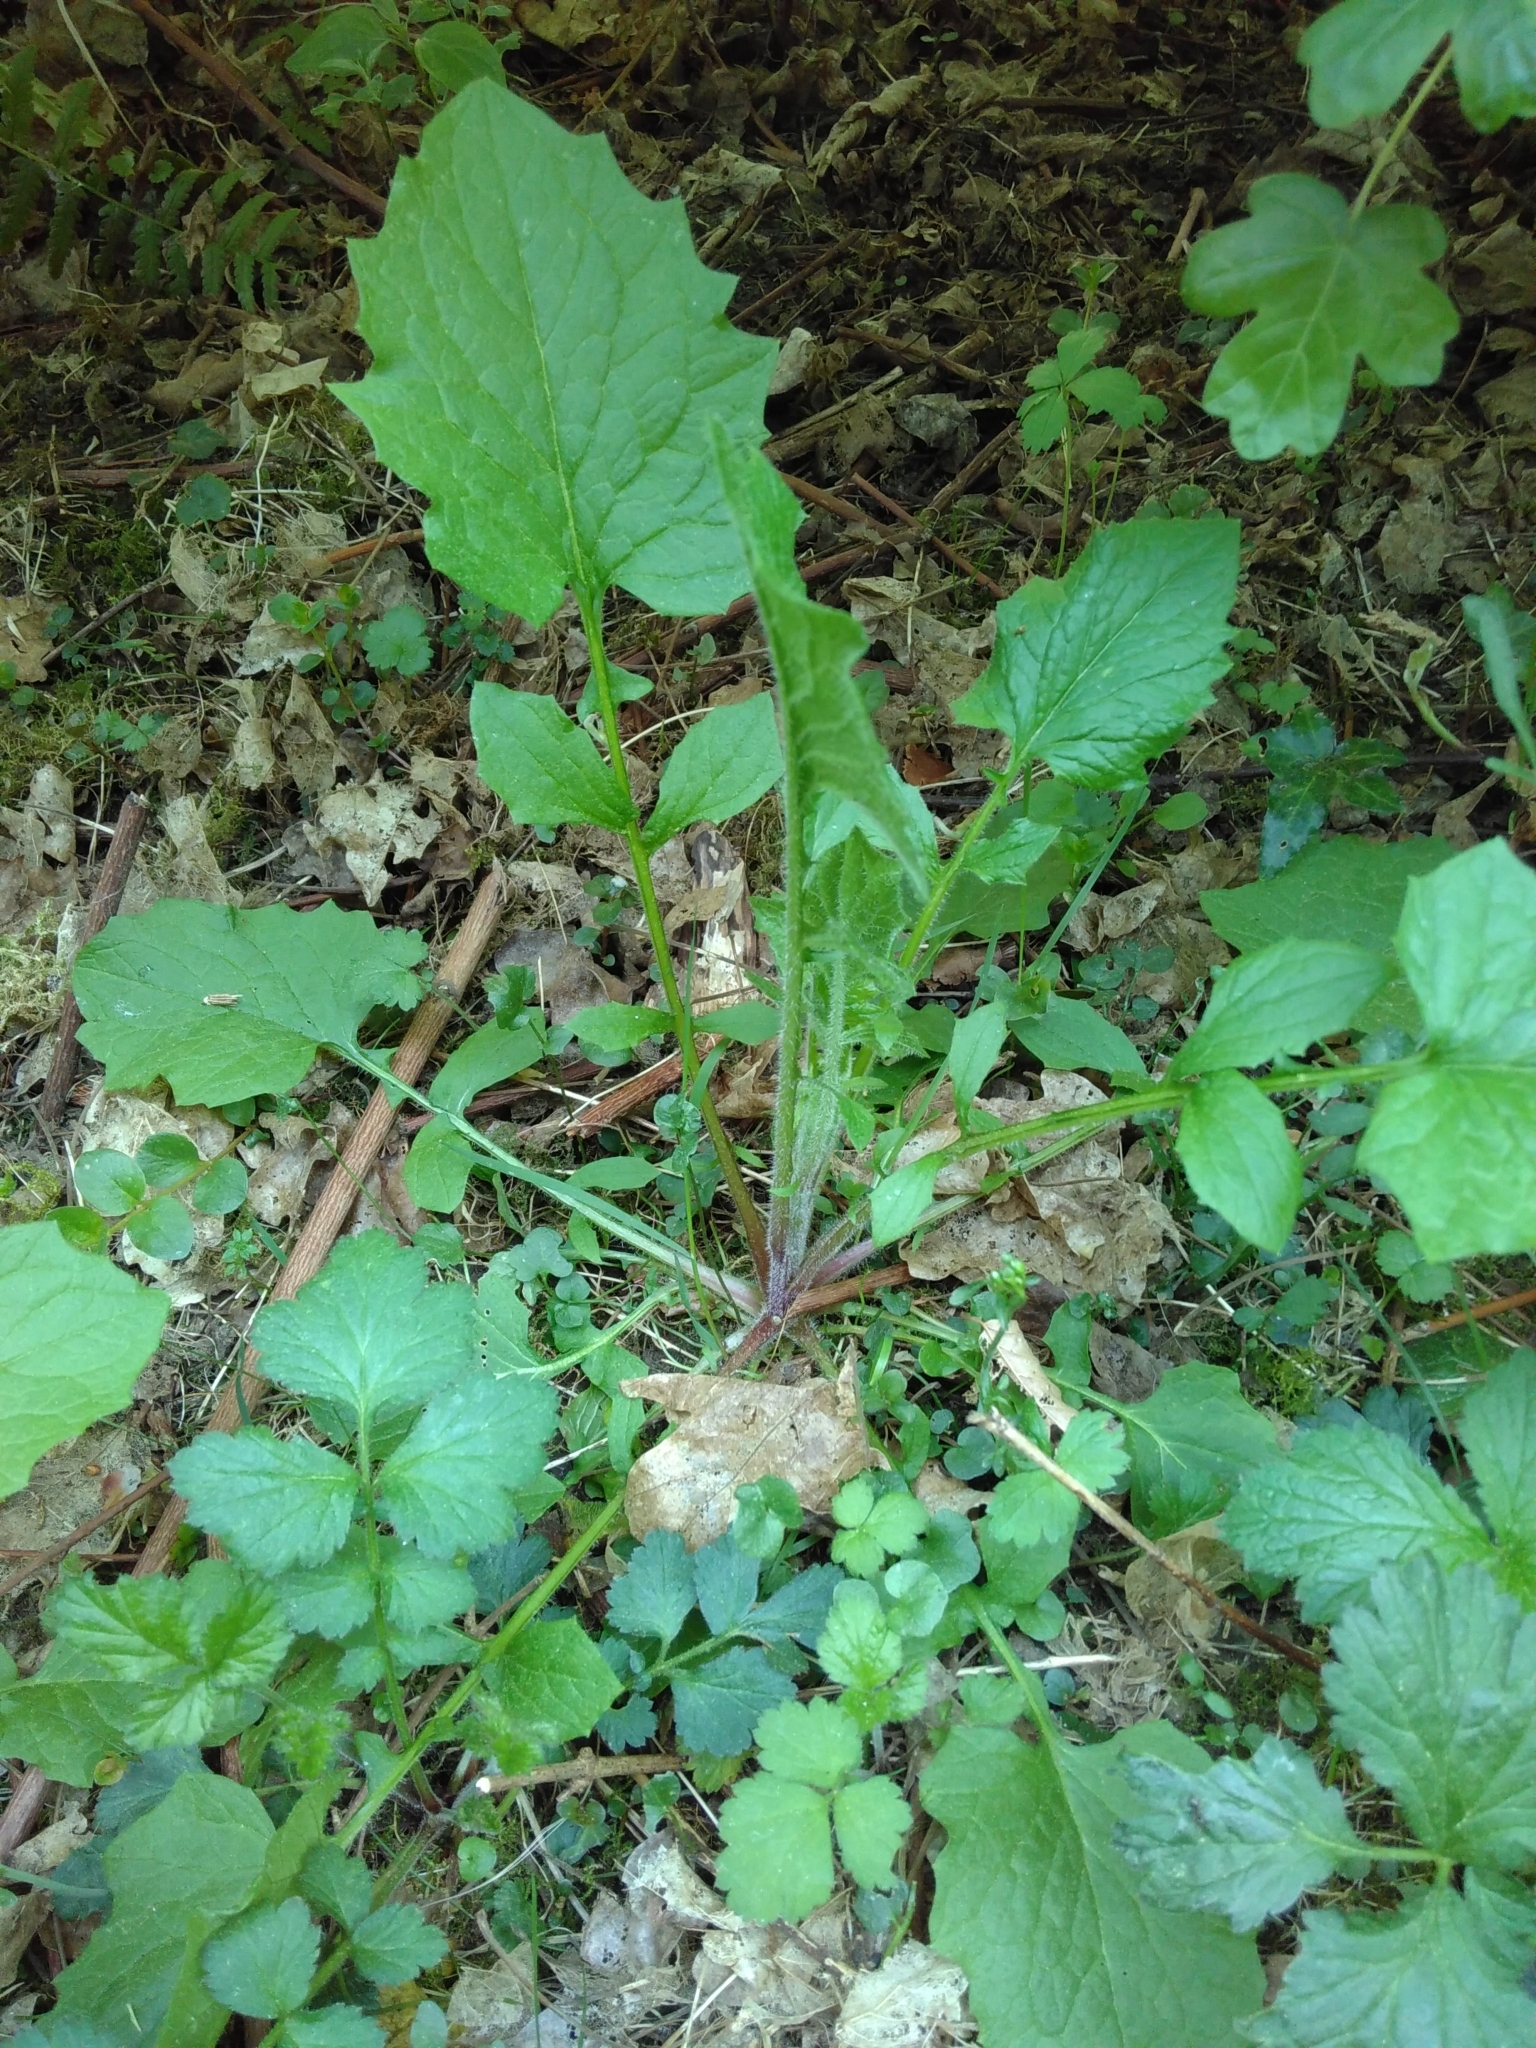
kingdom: Plantae
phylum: Tracheophyta
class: Magnoliopsida
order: Asterales
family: Asteraceae
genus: Lapsana
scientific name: Lapsana communis
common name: Nipplewort
